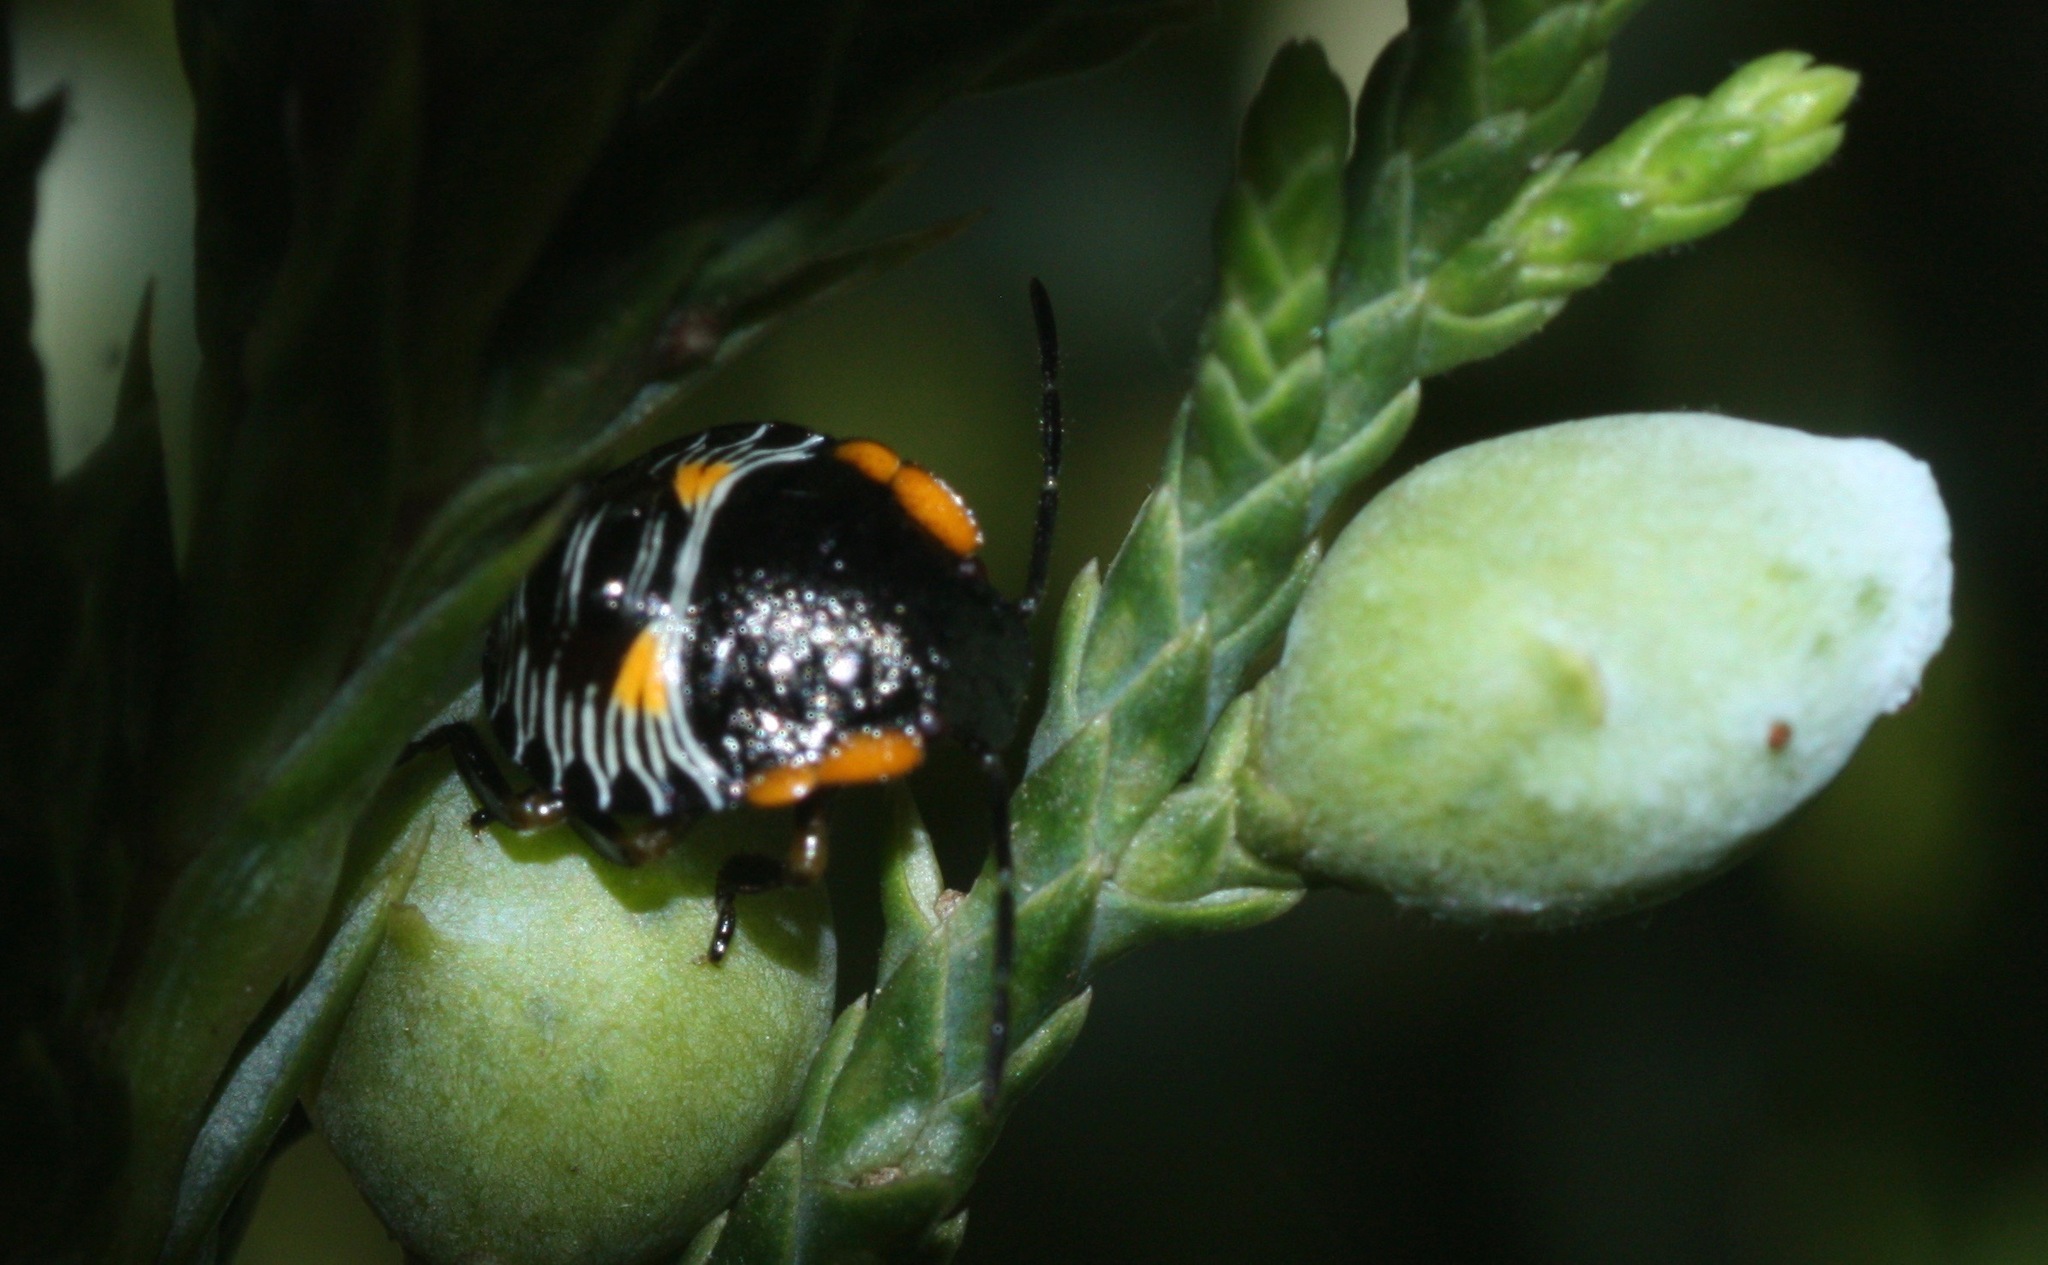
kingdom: Animalia
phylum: Arthropoda
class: Insecta
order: Hemiptera
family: Pentatomidae
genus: Chinavia
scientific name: Chinavia hilaris
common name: Green stink bug
